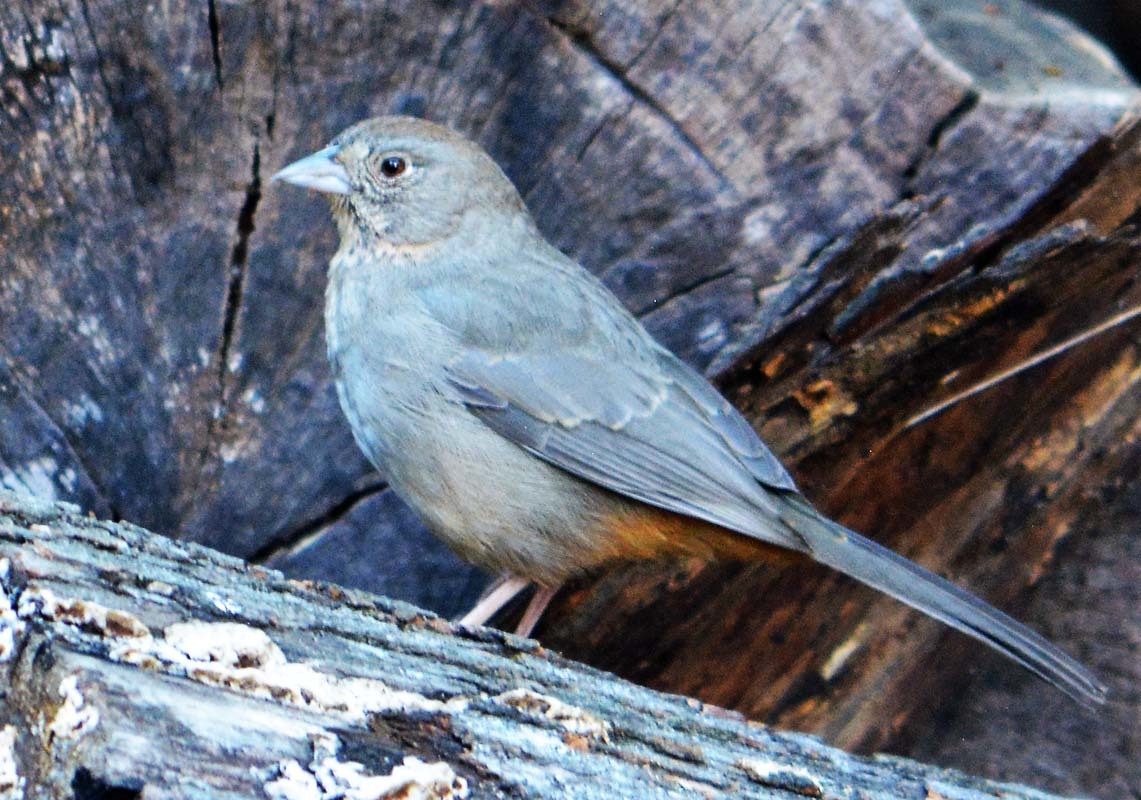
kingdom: Animalia
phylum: Chordata
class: Aves
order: Passeriformes
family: Passerellidae
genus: Melozone
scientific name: Melozone fusca
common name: Canyon towhee
